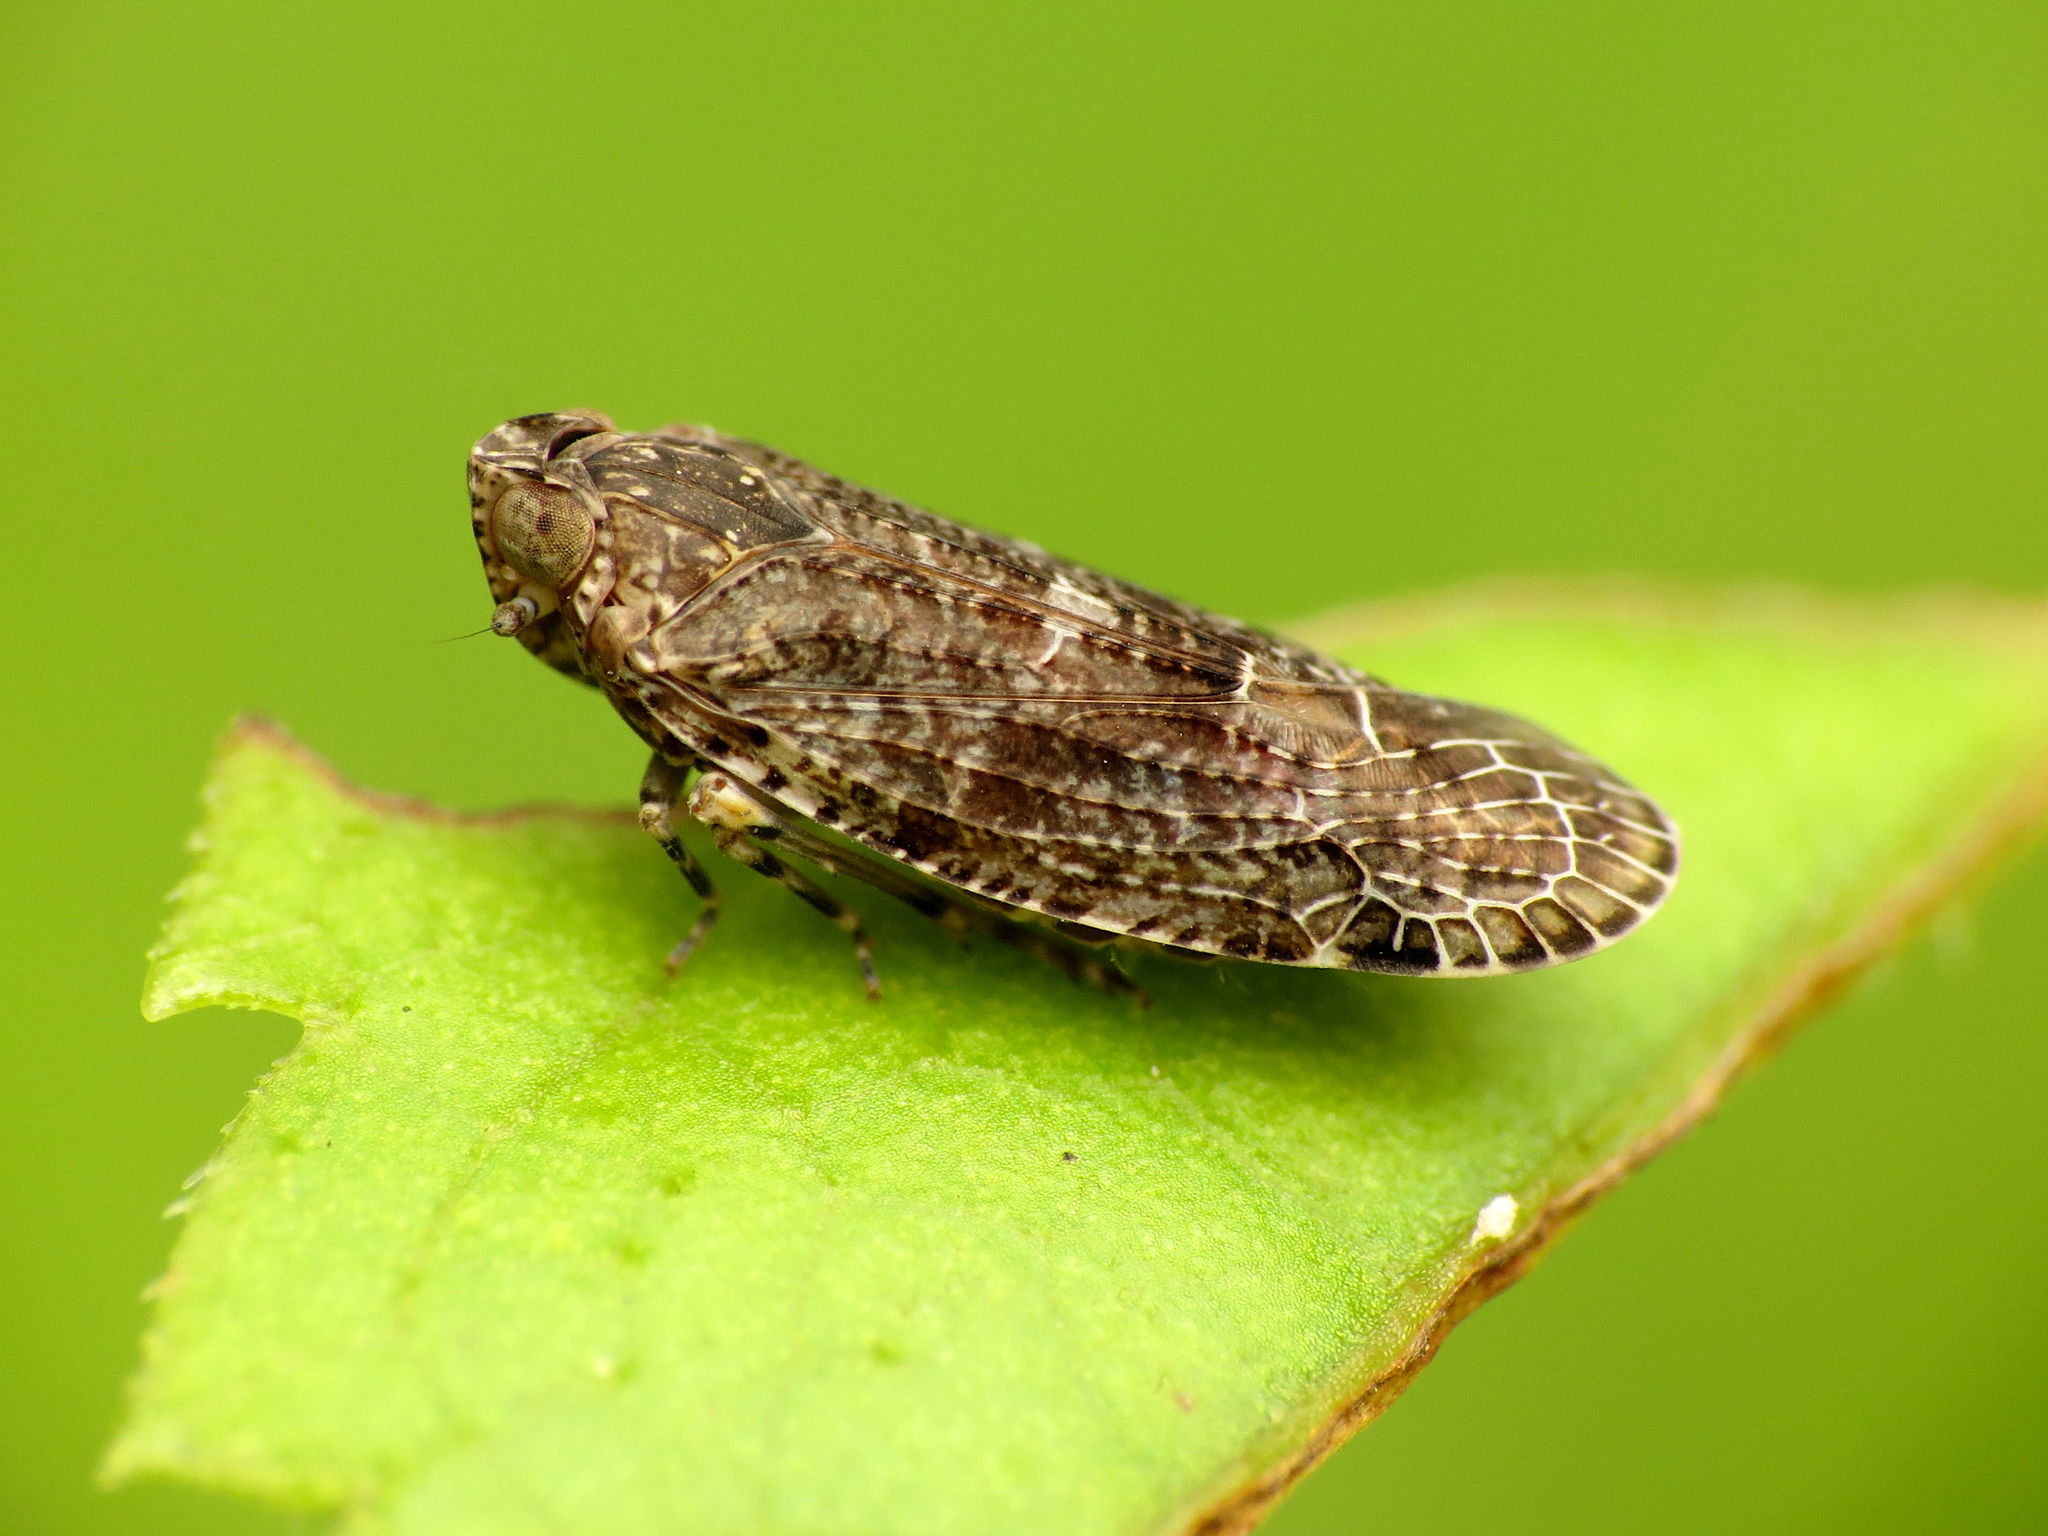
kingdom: Animalia
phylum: Arthropoda
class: Insecta
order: Hemiptera
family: Achilidae
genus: Catonia
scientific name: Catonia carolina
